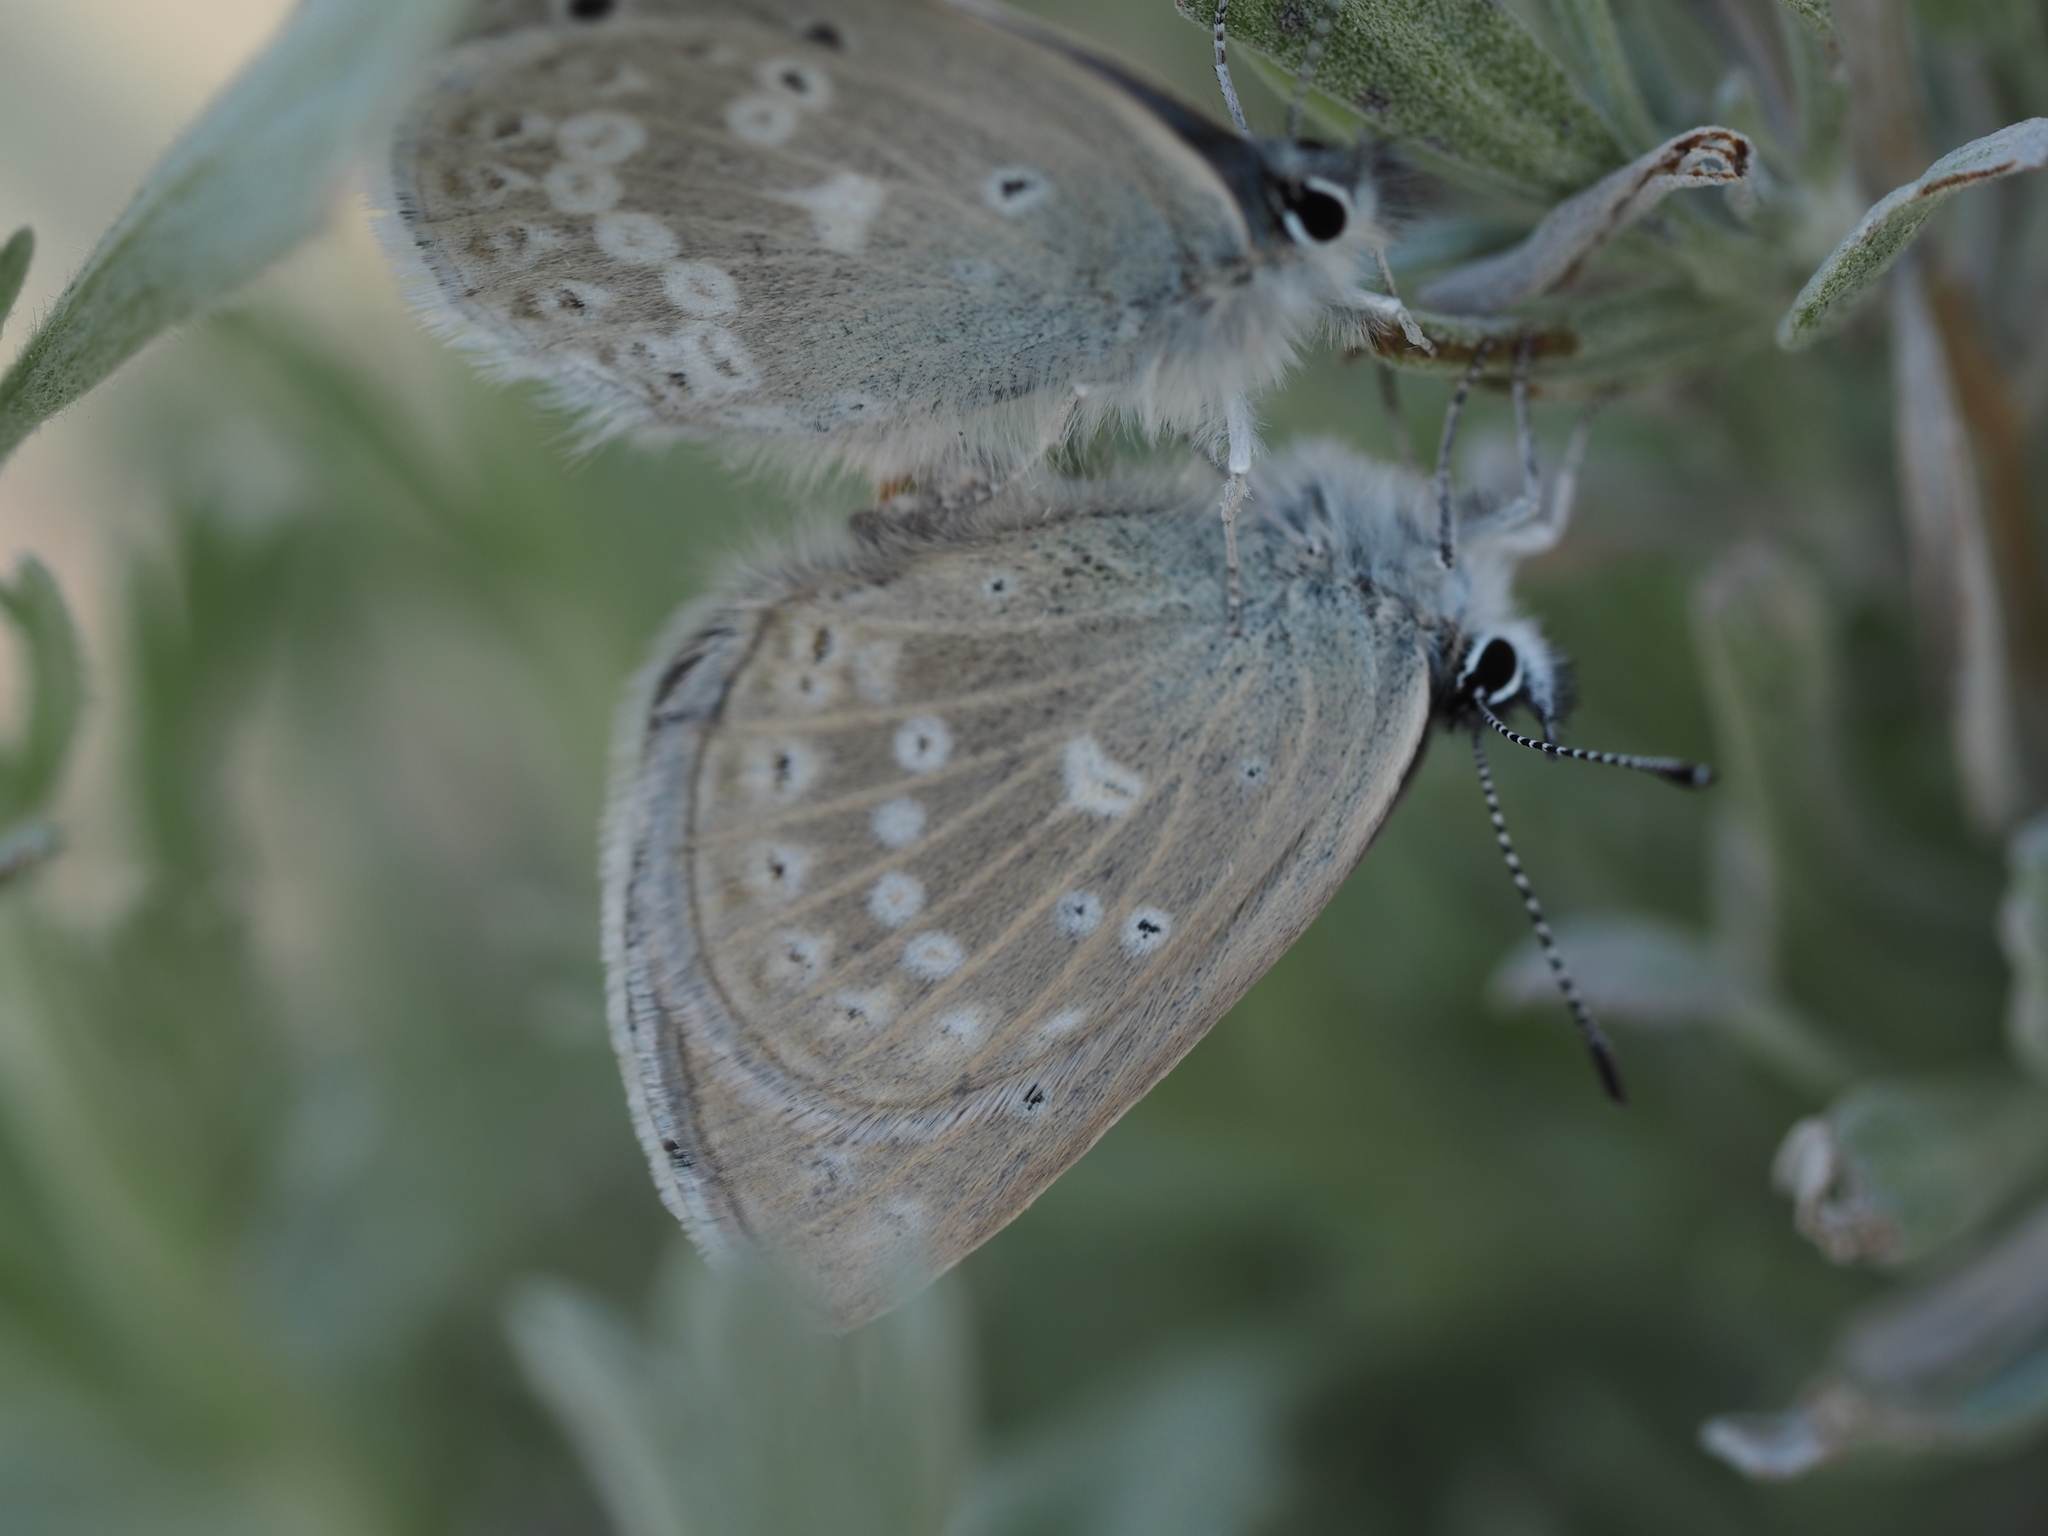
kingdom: Animalia
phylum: Arthropoda
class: Insecta
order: Lepidoptera
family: Lycaenidae
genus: Icaricia
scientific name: Icaricia icarioides
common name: Boisduval's blue
